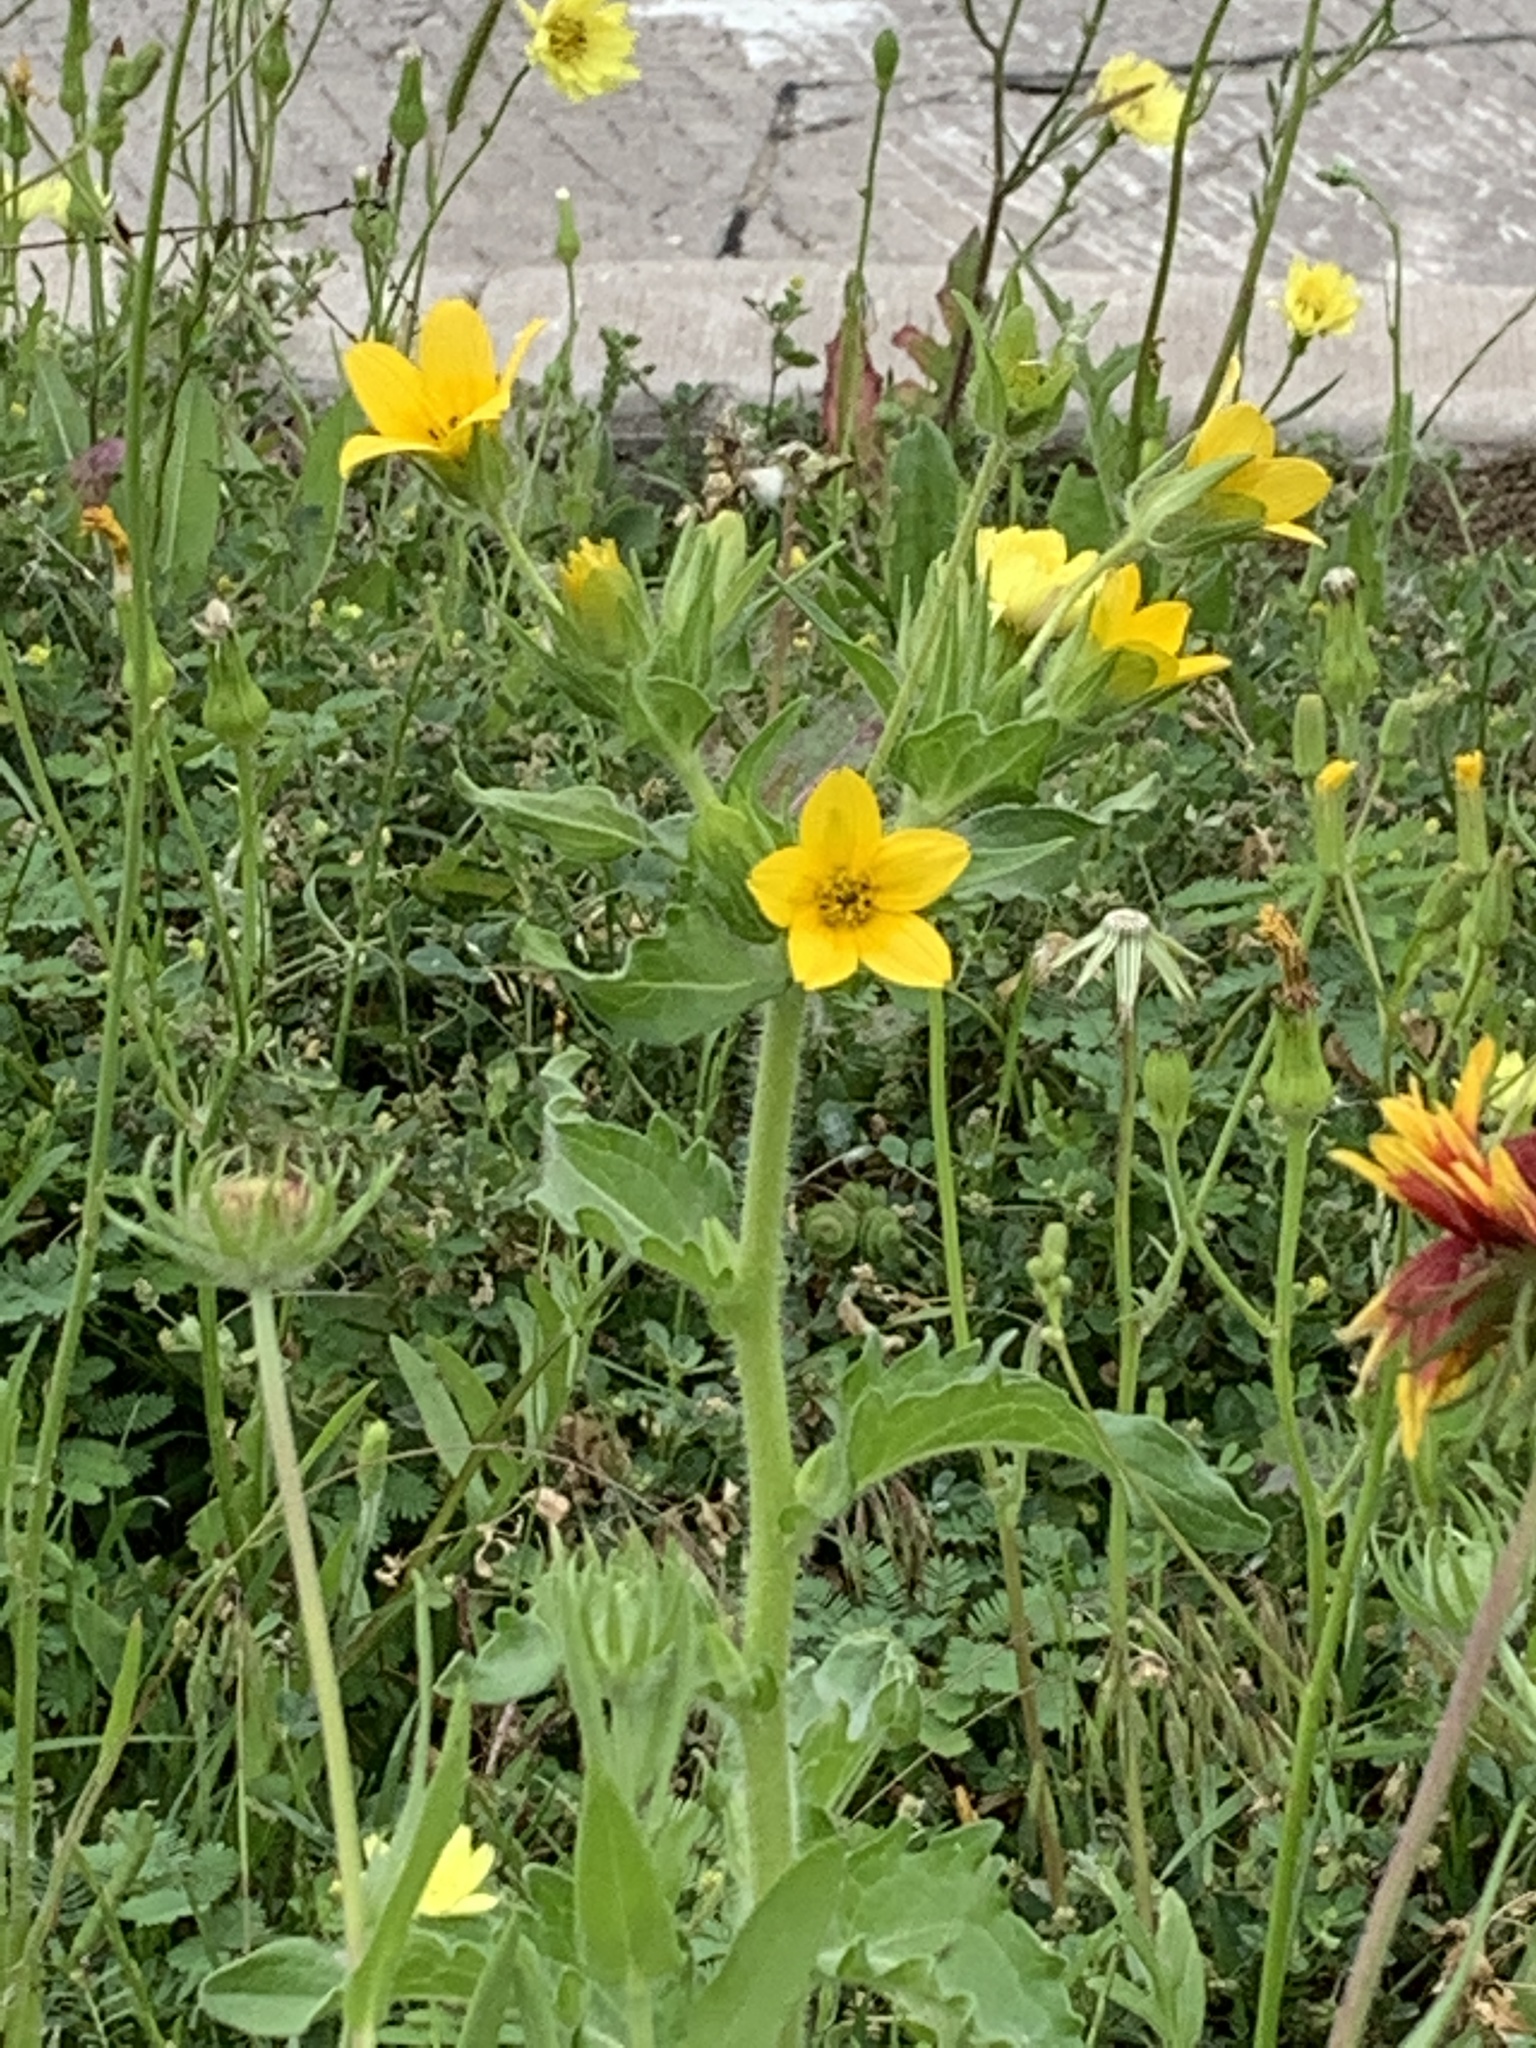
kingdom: Plantae
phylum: Tracheophyta
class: Magnoliopsida
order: Asterales
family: Asteraceae
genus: Lindheimera
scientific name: Lindheimera texana
